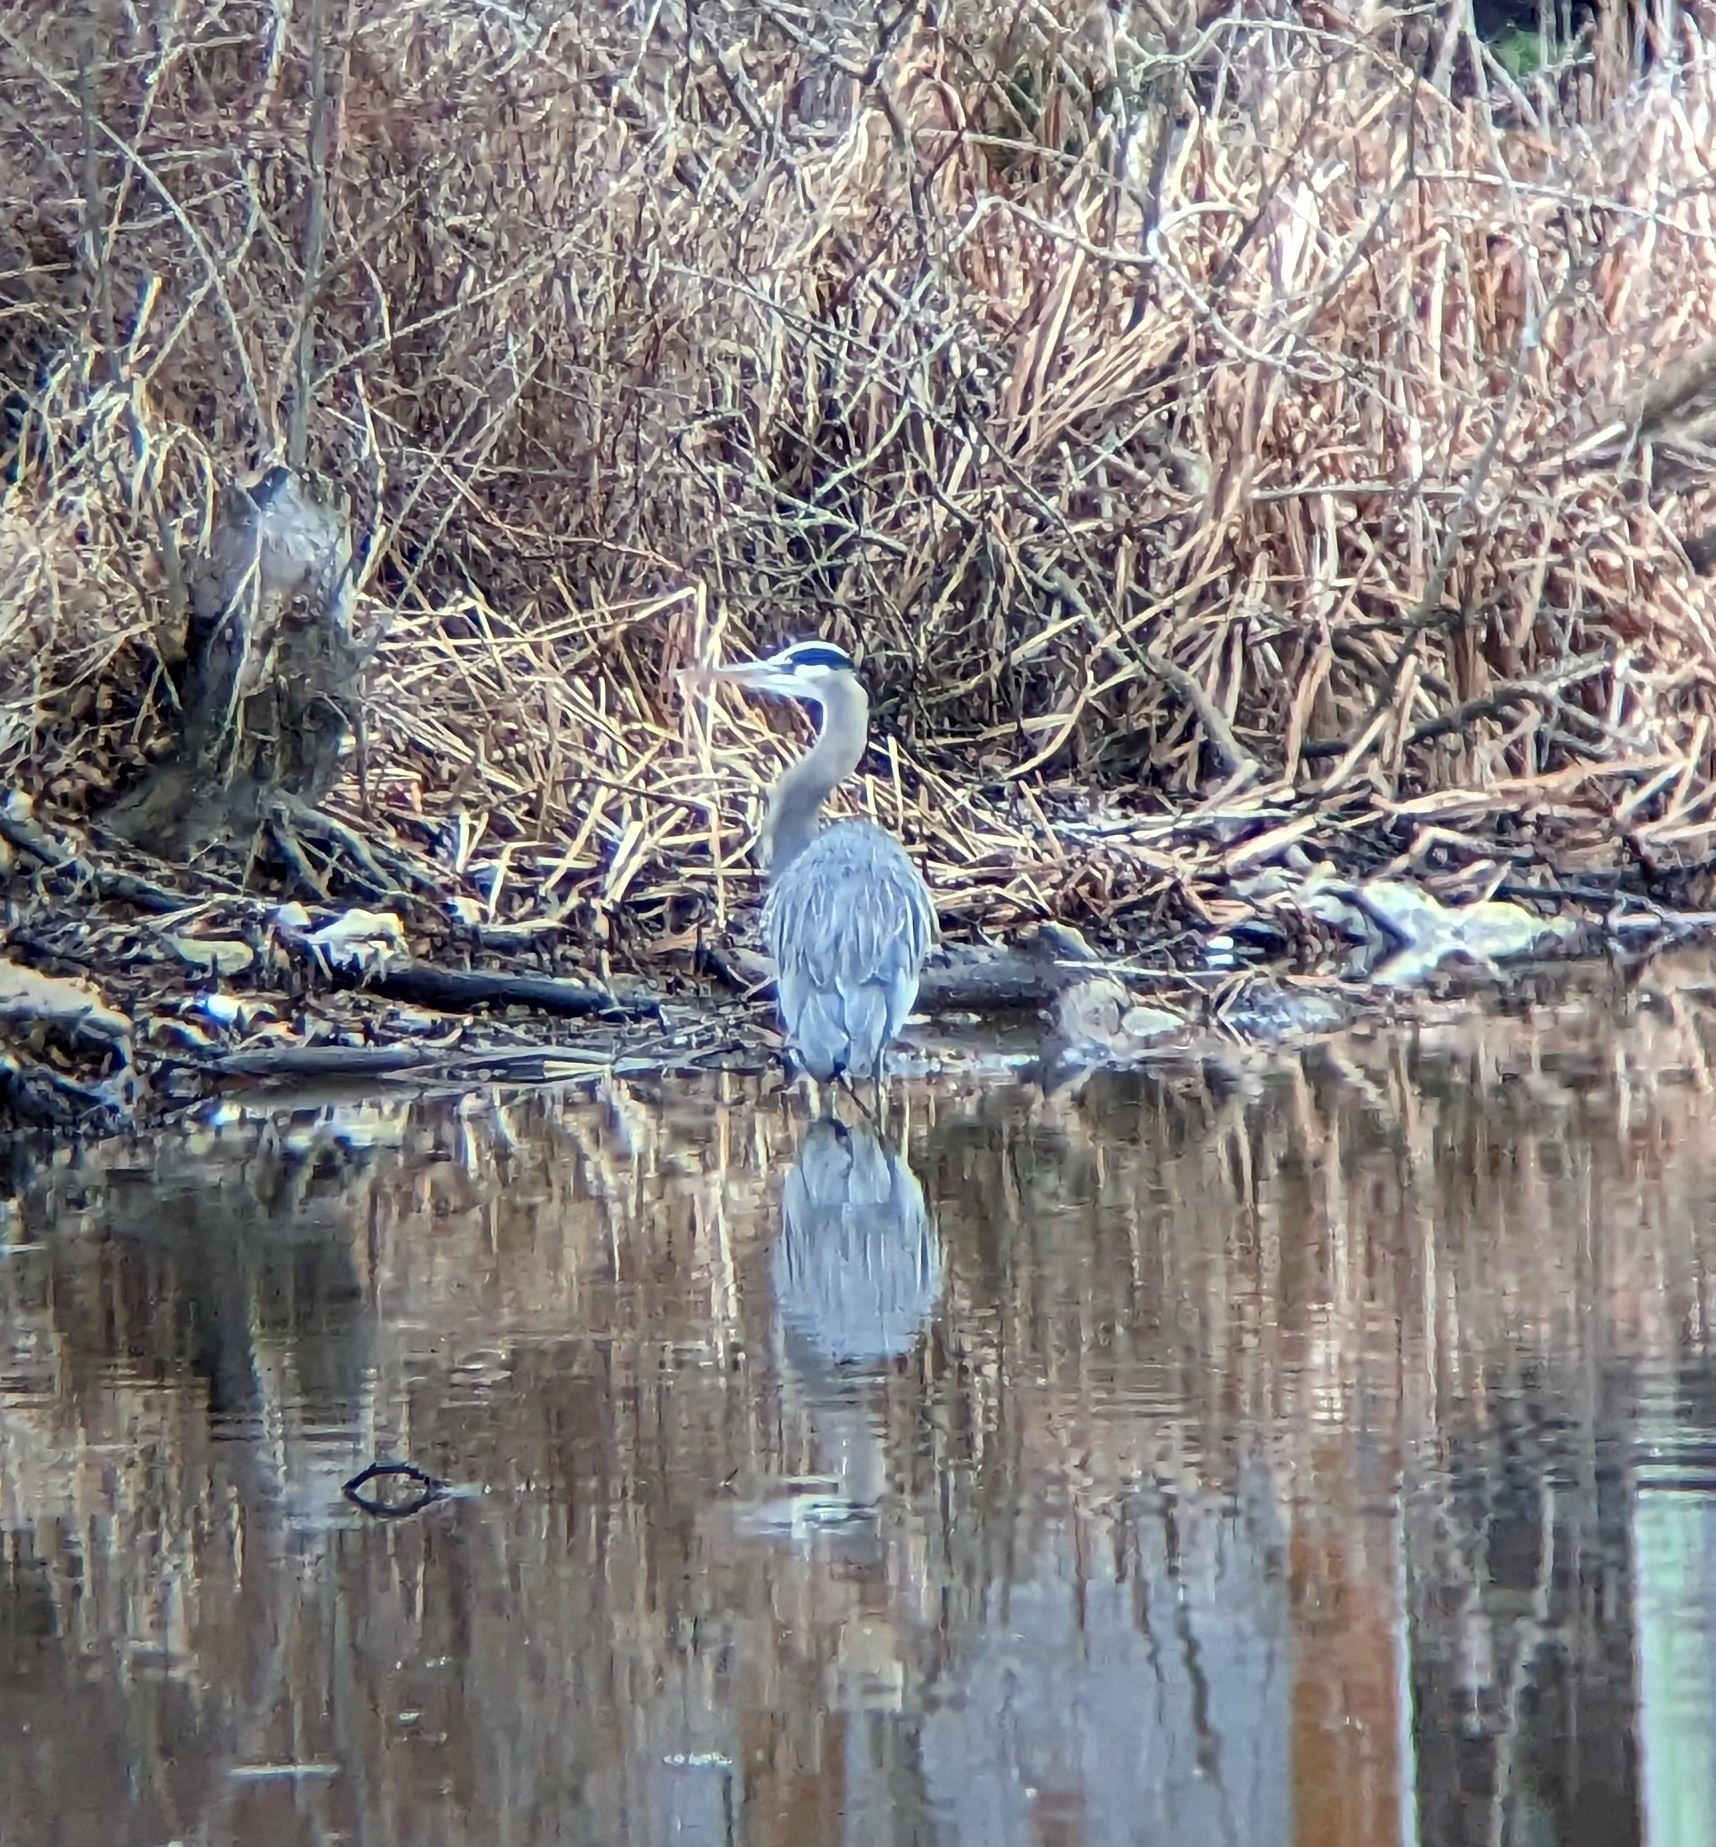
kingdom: Animalia
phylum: Chordata
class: Aves
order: Pelecaniformes
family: Ardeidae
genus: Ardea
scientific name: Ardea herodias
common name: Great blue heron
